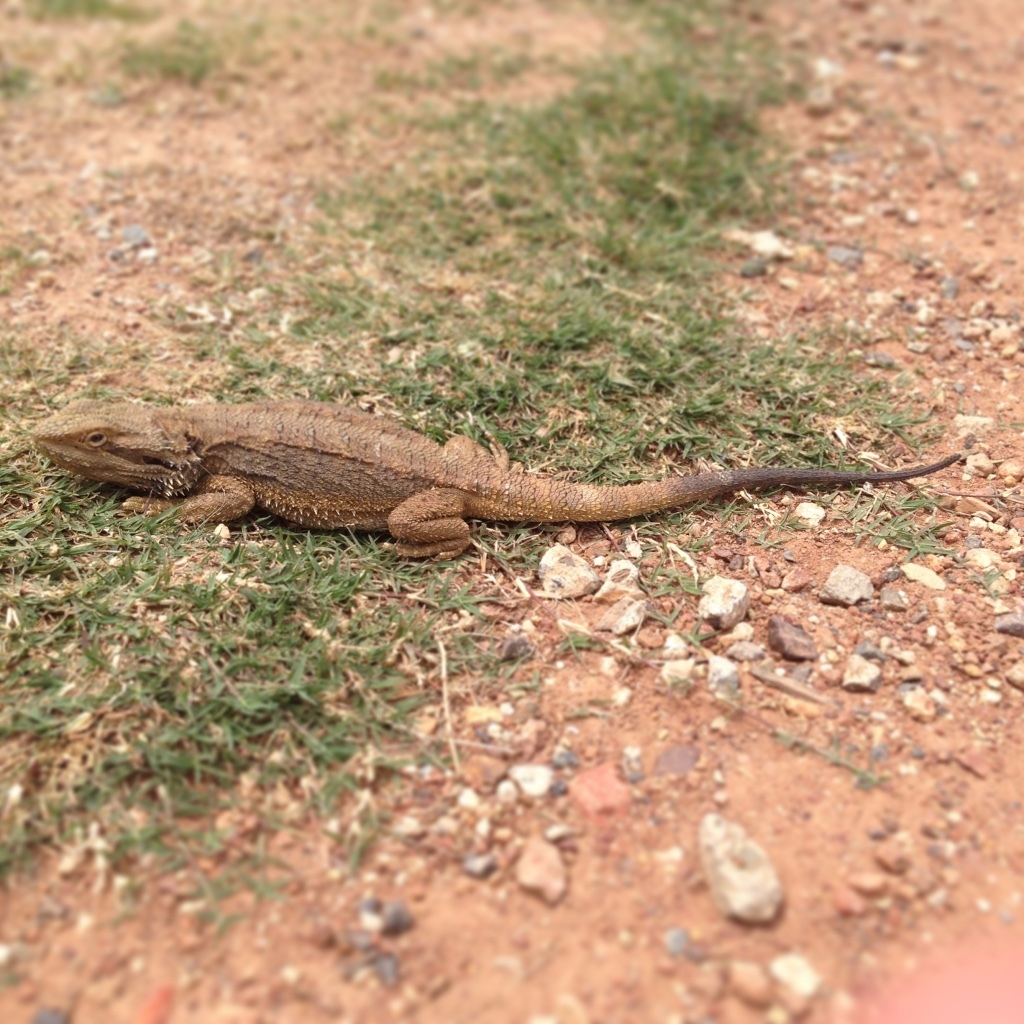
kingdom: Animalia
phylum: Chordata
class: Squamata
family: Agamidae
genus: Pogona
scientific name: Pogona barbata
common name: Bearded dragon
